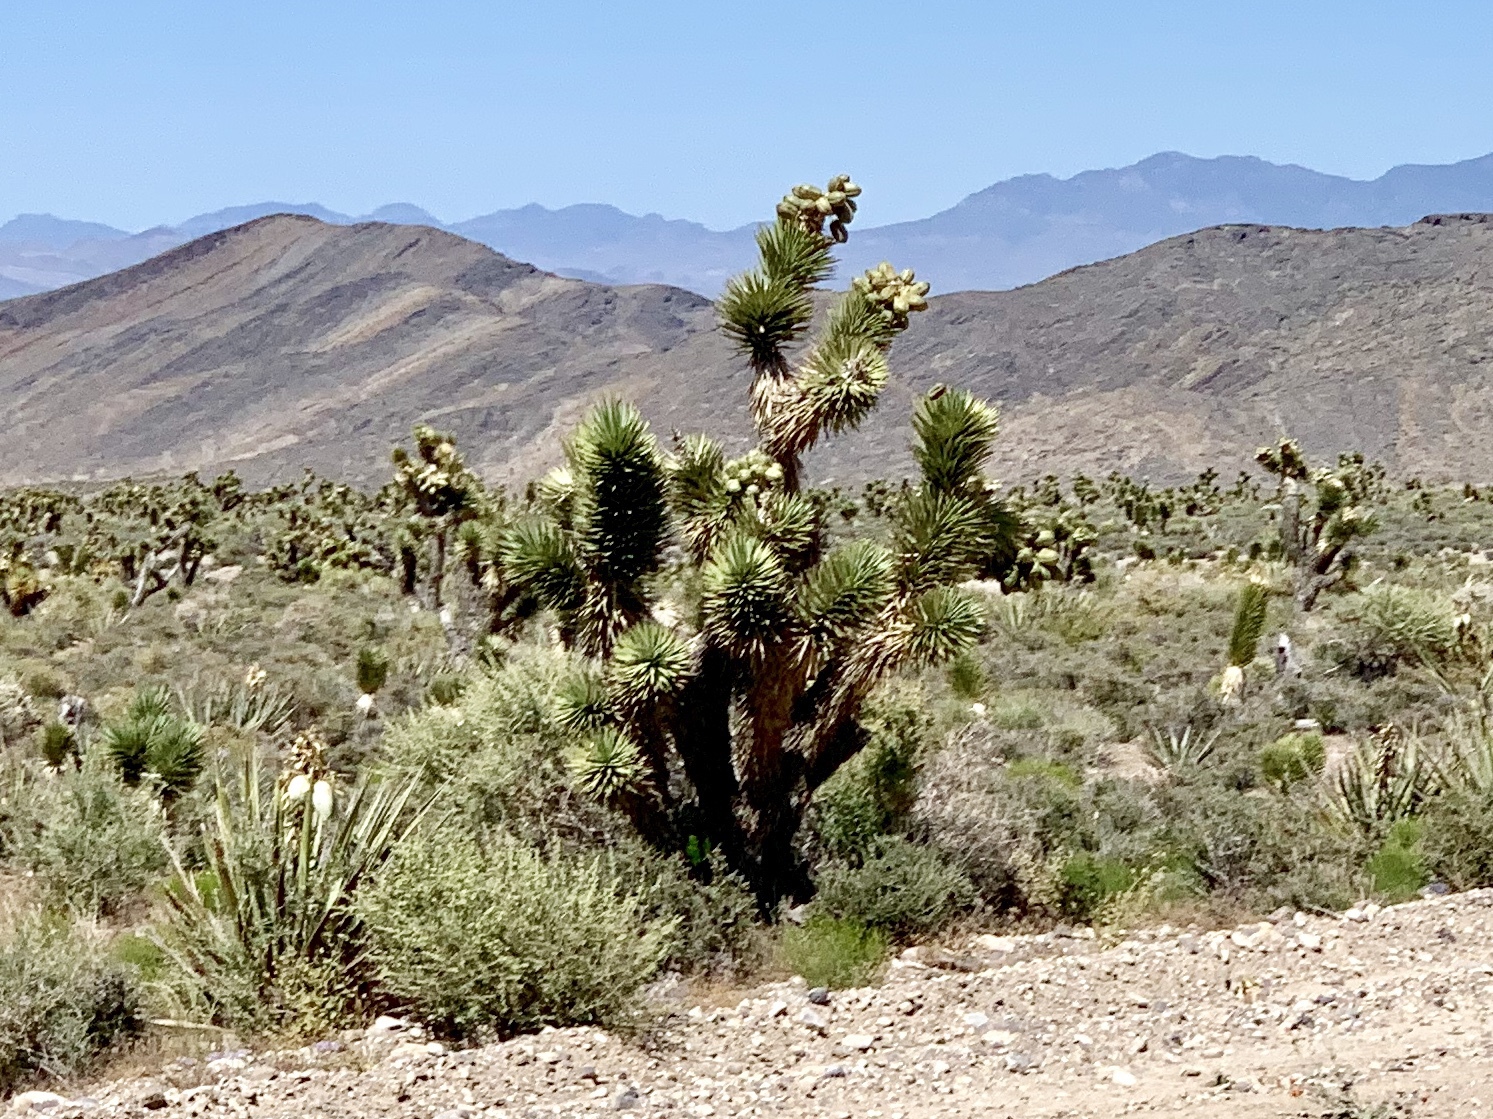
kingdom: Plantae
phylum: Tracheophyta
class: Liliopsida
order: Asparagales
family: Asparagaceae
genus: Yucca
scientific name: Yucca brevifolia
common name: Joshua tree
